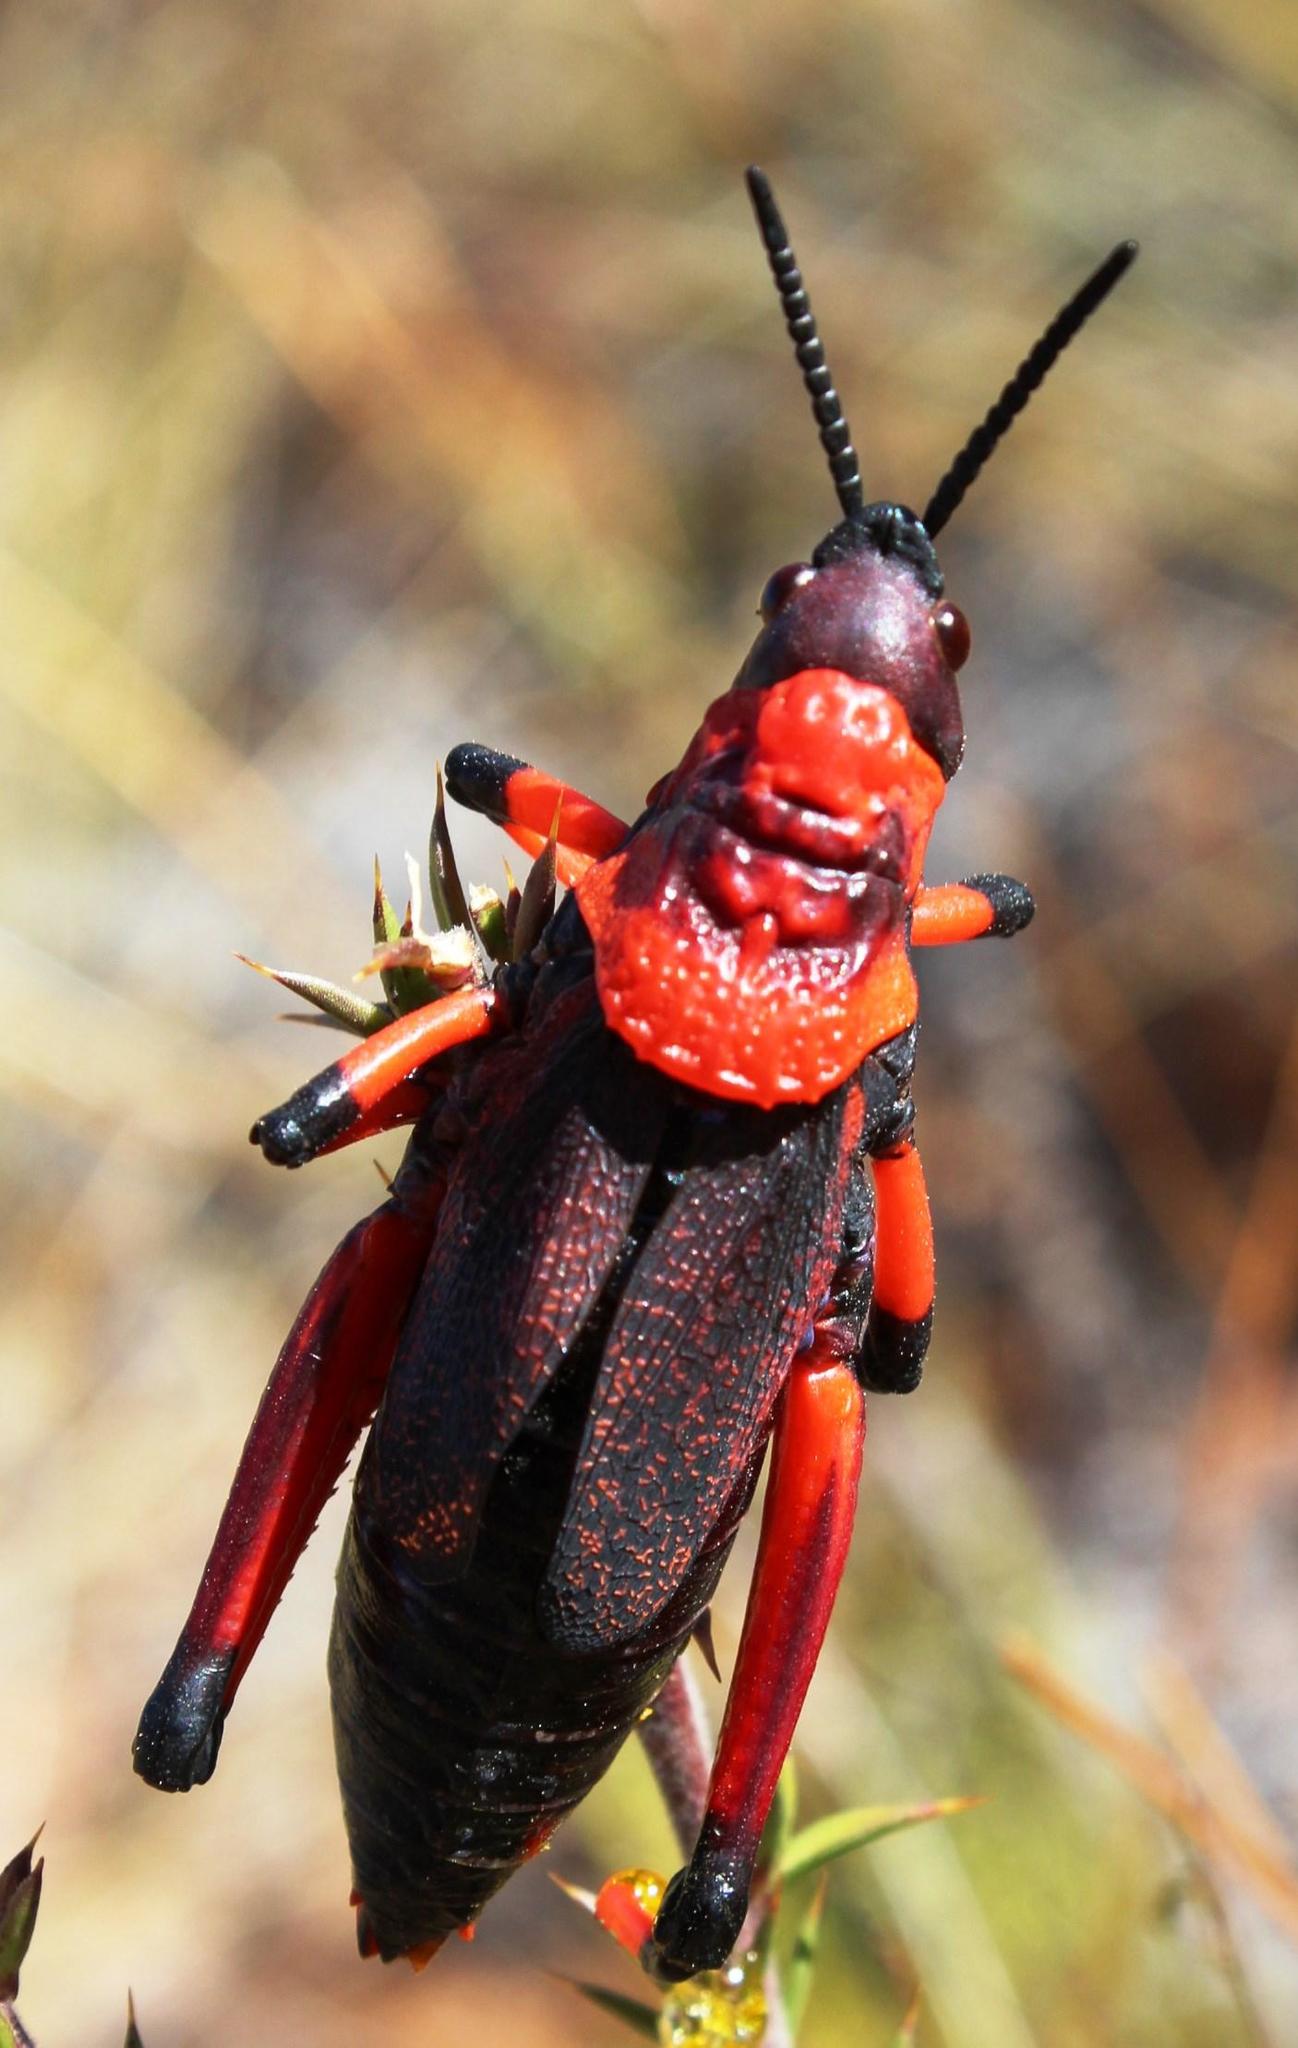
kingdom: Animalia
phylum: Arthropoda
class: Insecta
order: Orthoptera
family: Pyrgomorphidae
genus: Dictyophorus
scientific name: Dictyophorus spumans
